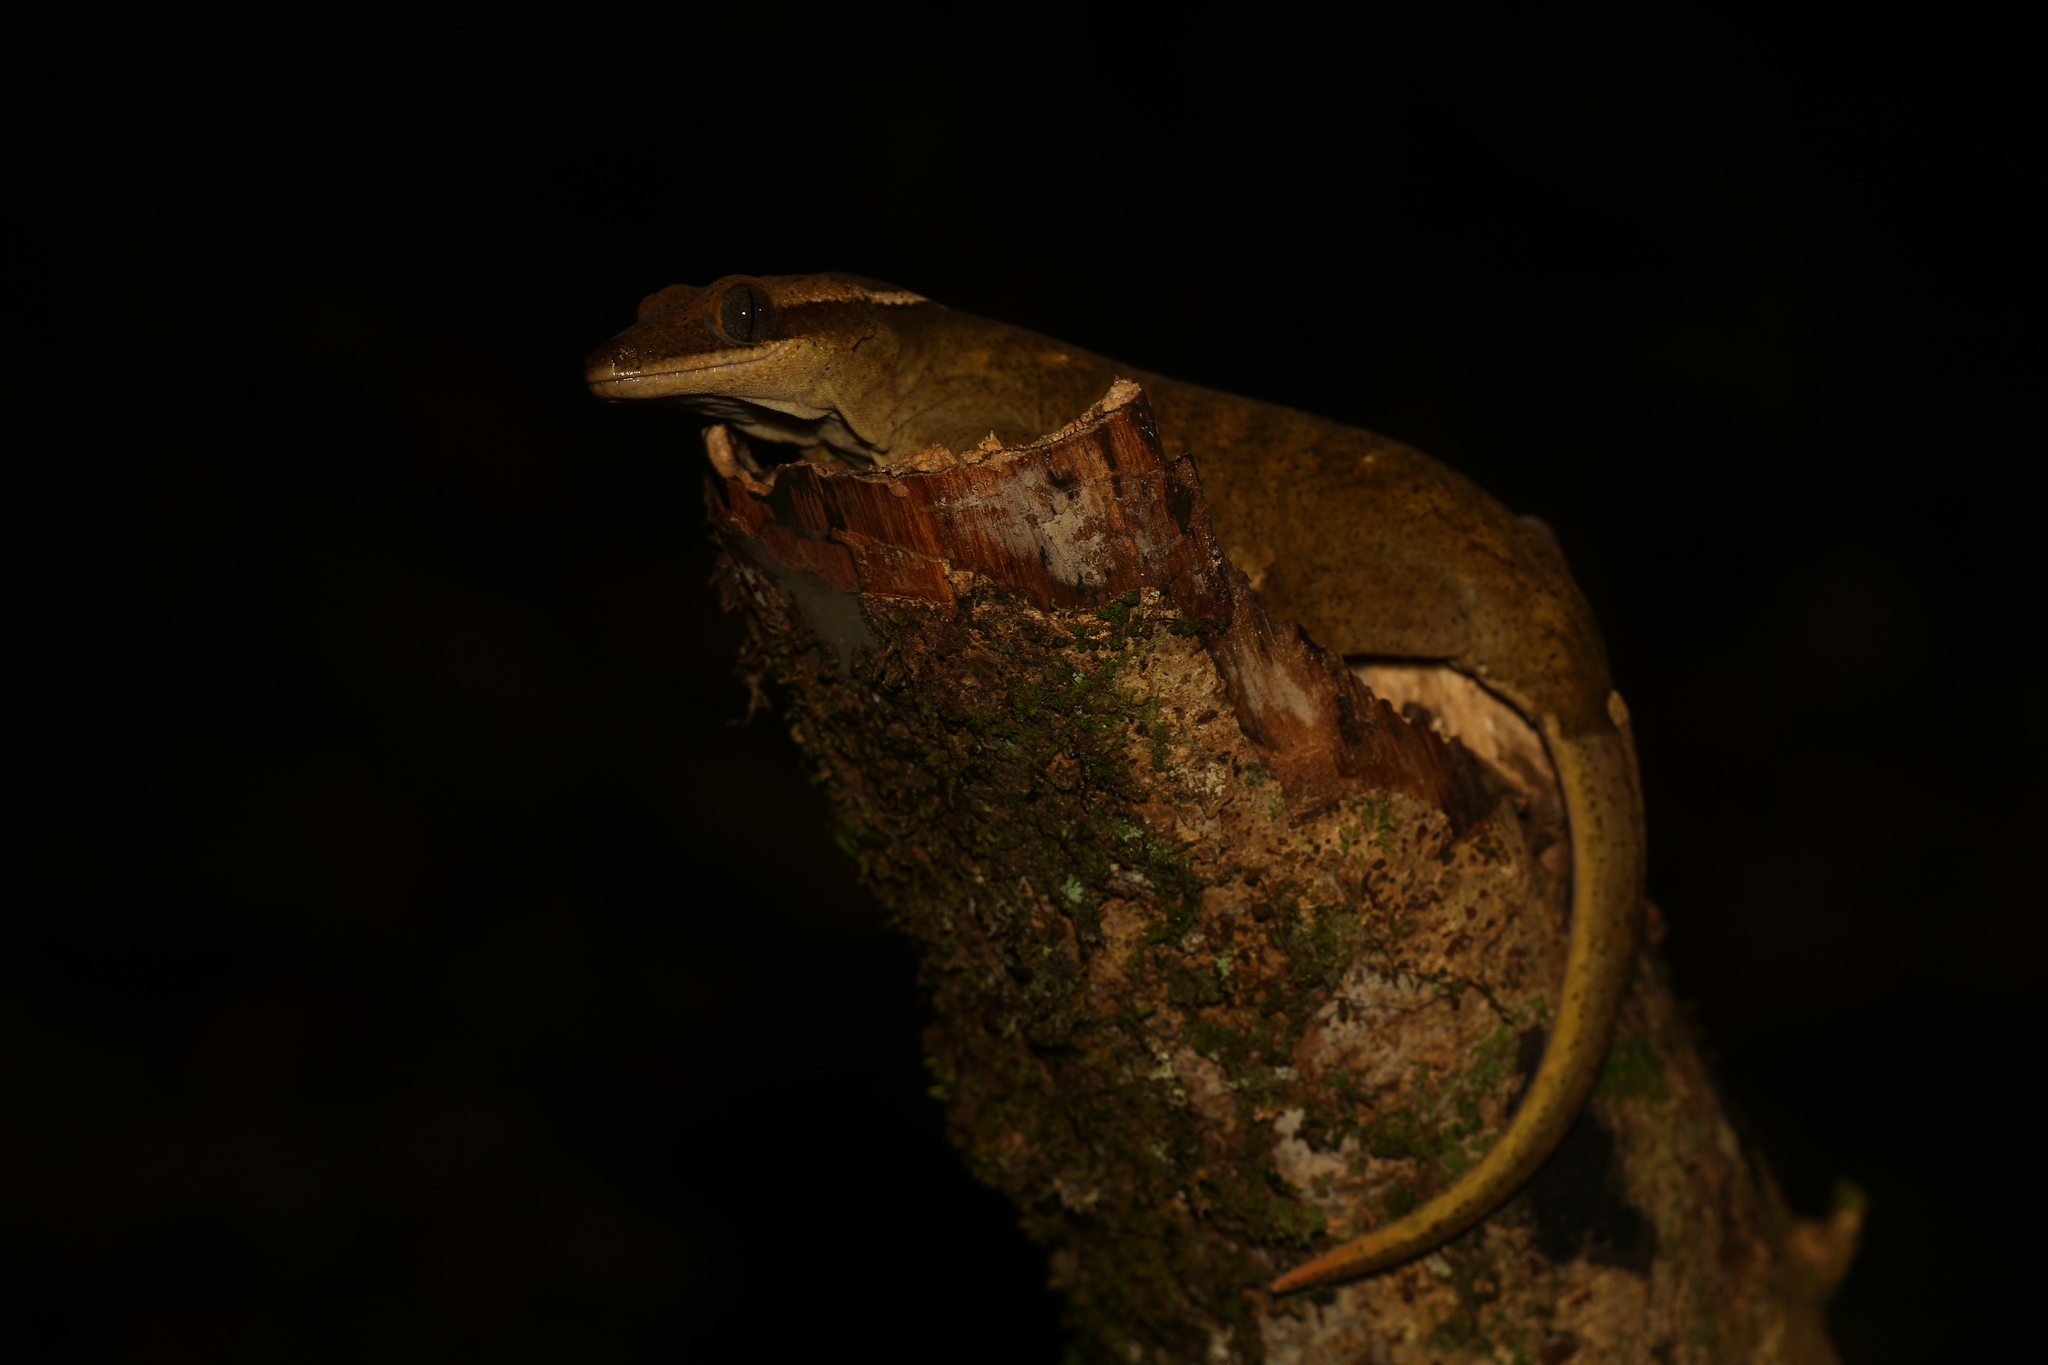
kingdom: Animalia
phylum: Chordata
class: Squamata
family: Diplodactylidae
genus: Correlophus
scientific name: Correlophus sarasinorum
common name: Roux's giant gecko
